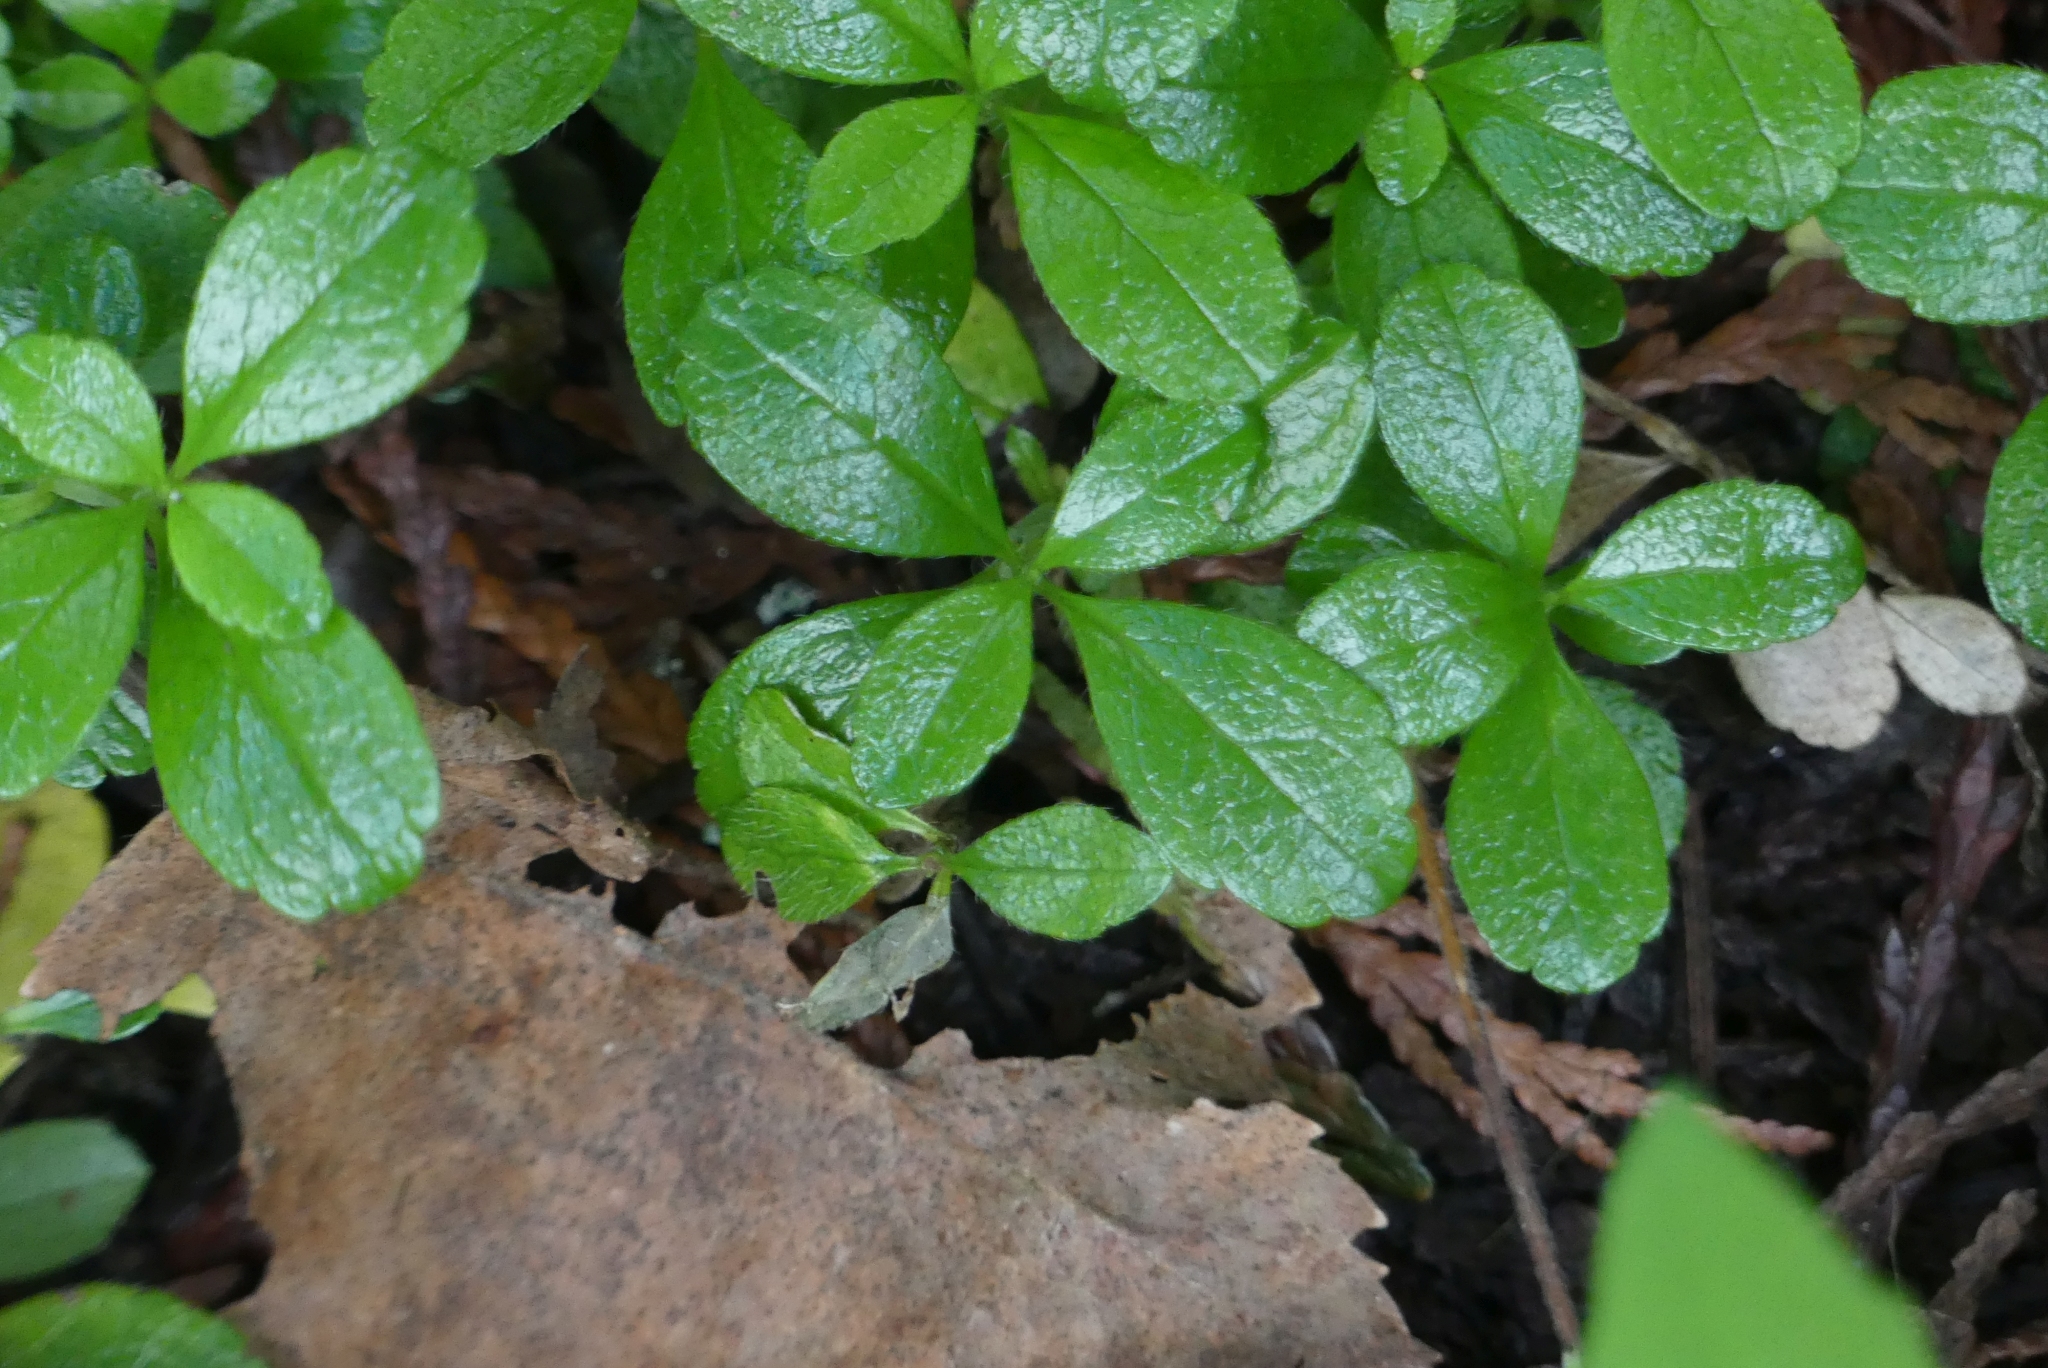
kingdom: Plantae
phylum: Tracheophyta
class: Magnoliopsida
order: Dipsacales
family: Caprifoliaceae
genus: Linnaea
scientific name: Linnaea borealis
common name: Twinflower
